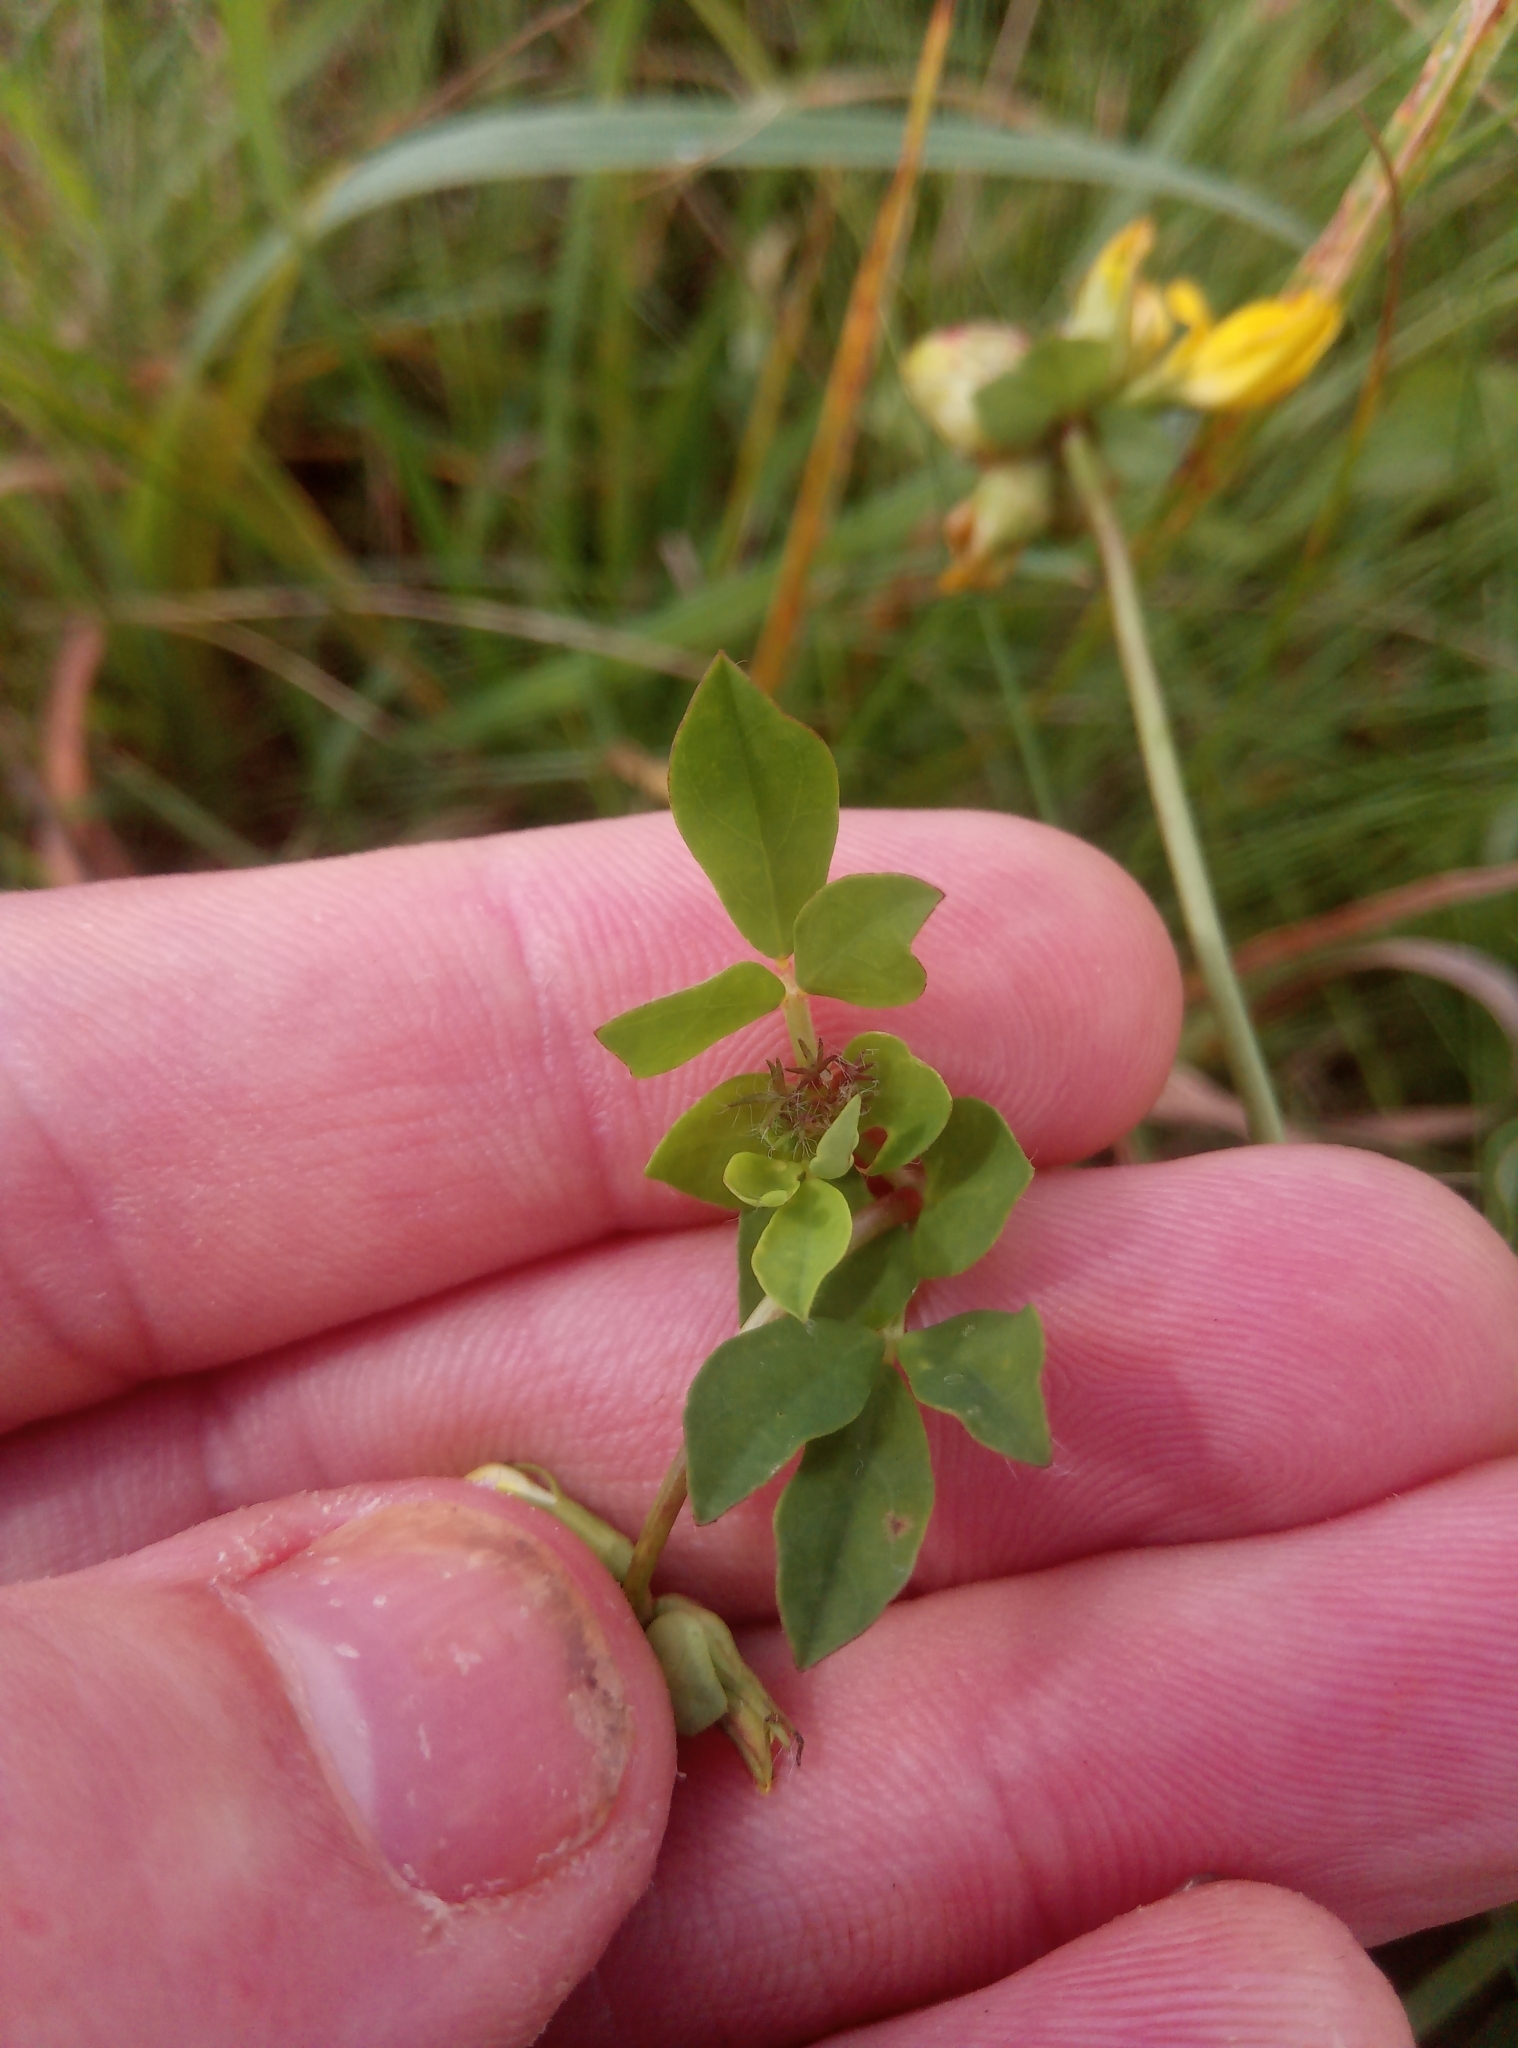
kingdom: Plantae
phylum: Tracheophyta
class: Magnoliopsida
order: Fabales
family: Fabaceae
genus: Lotus
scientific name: Lotus pedunculatus
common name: Greater birdsfoot-trefoil
